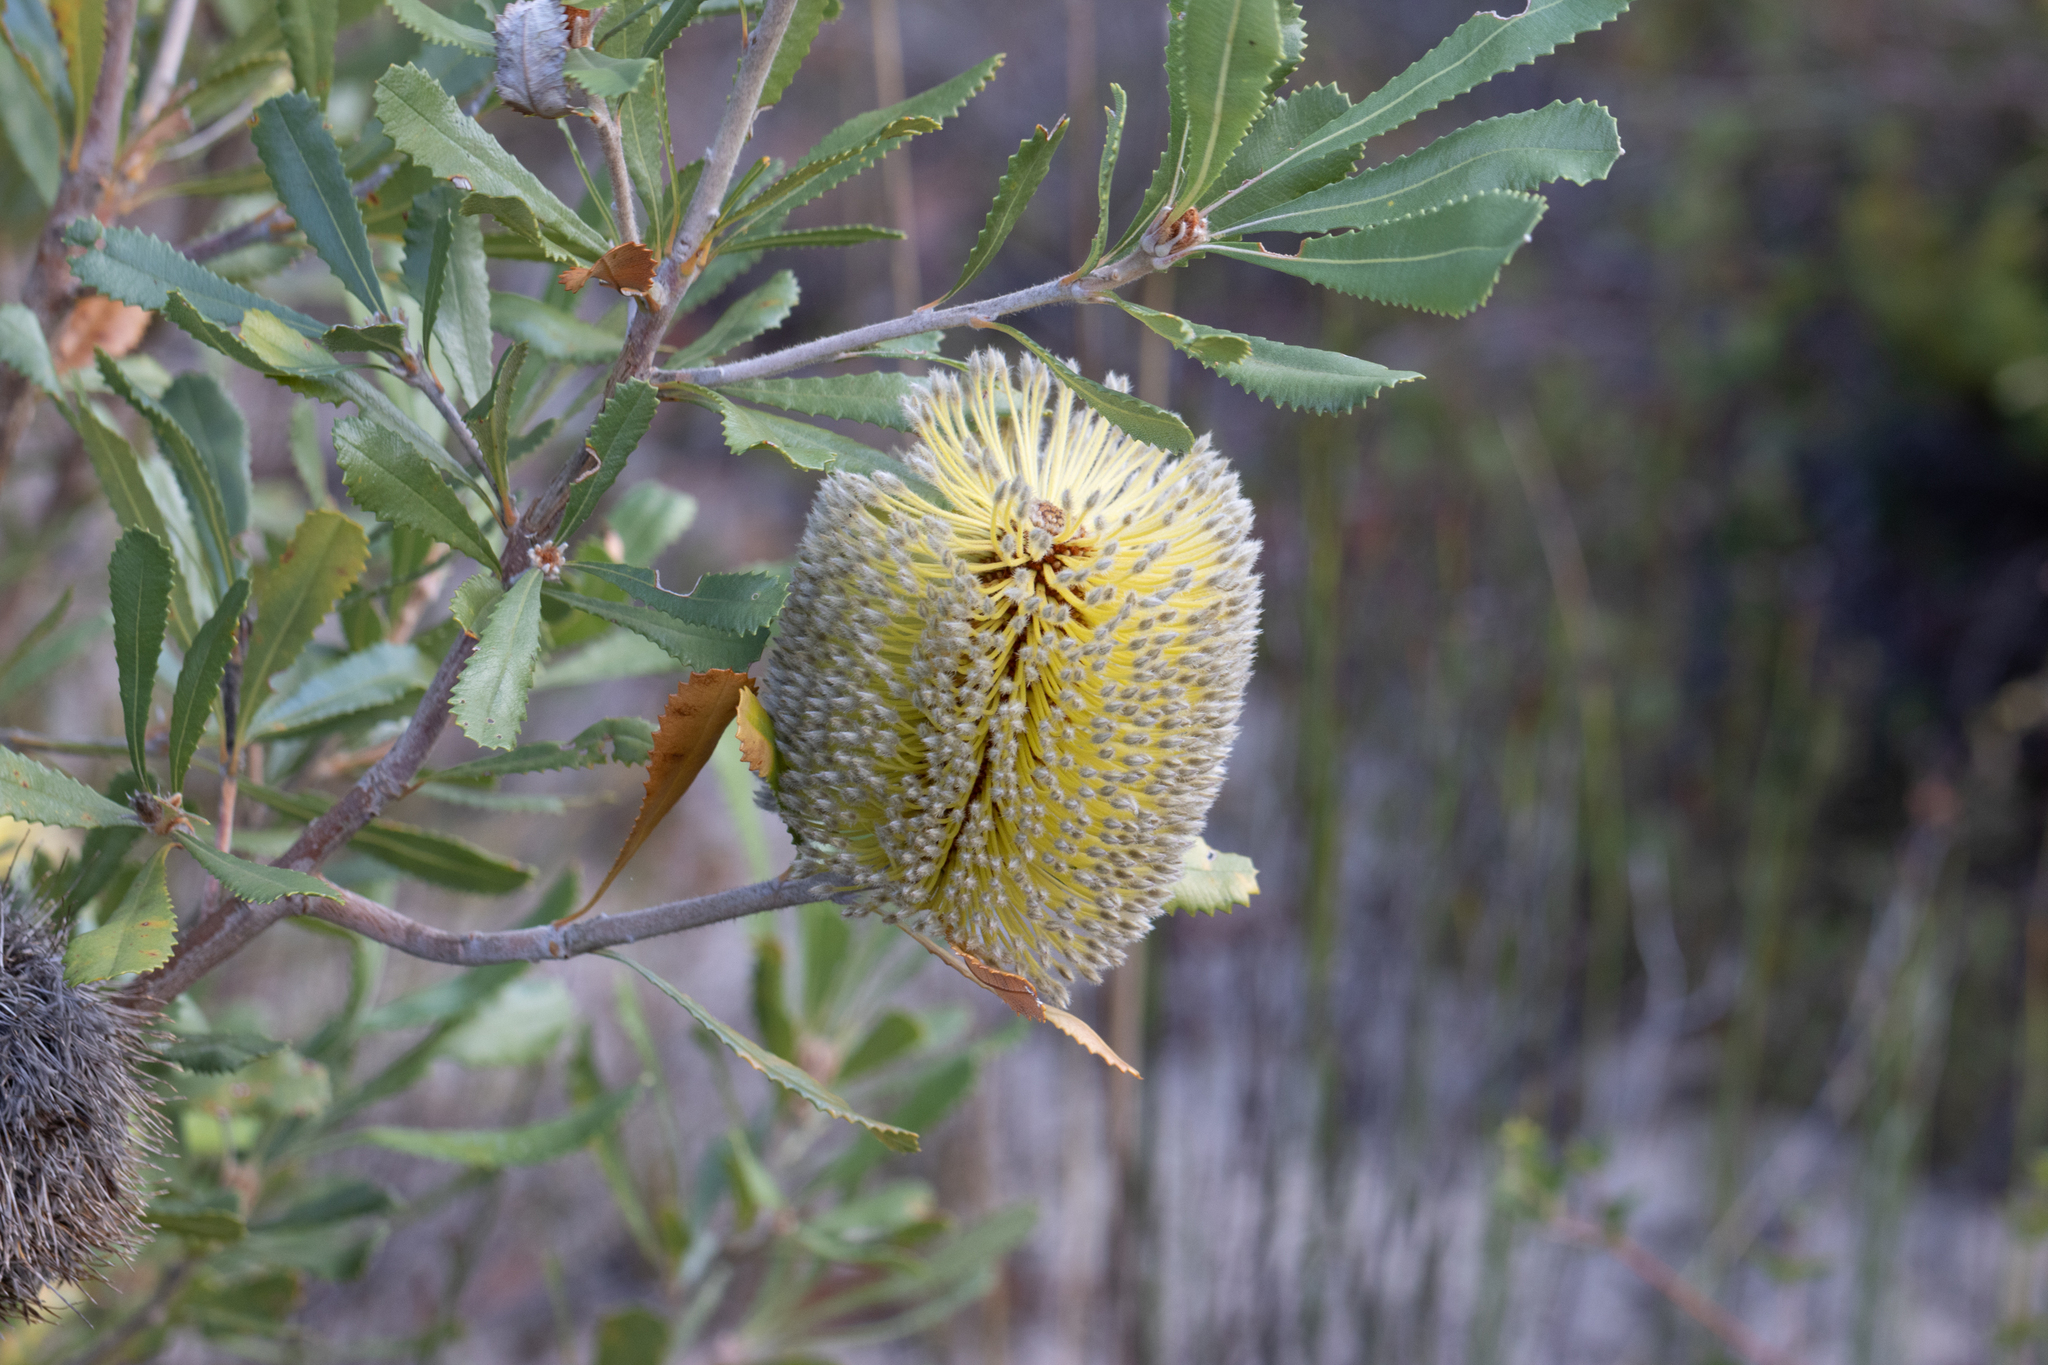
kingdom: Plantae
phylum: Tracheophyta
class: Magnoliopsida
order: Proteales
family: Proteaceae
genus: Banksia
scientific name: Banksia ornata
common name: Desert banksia
